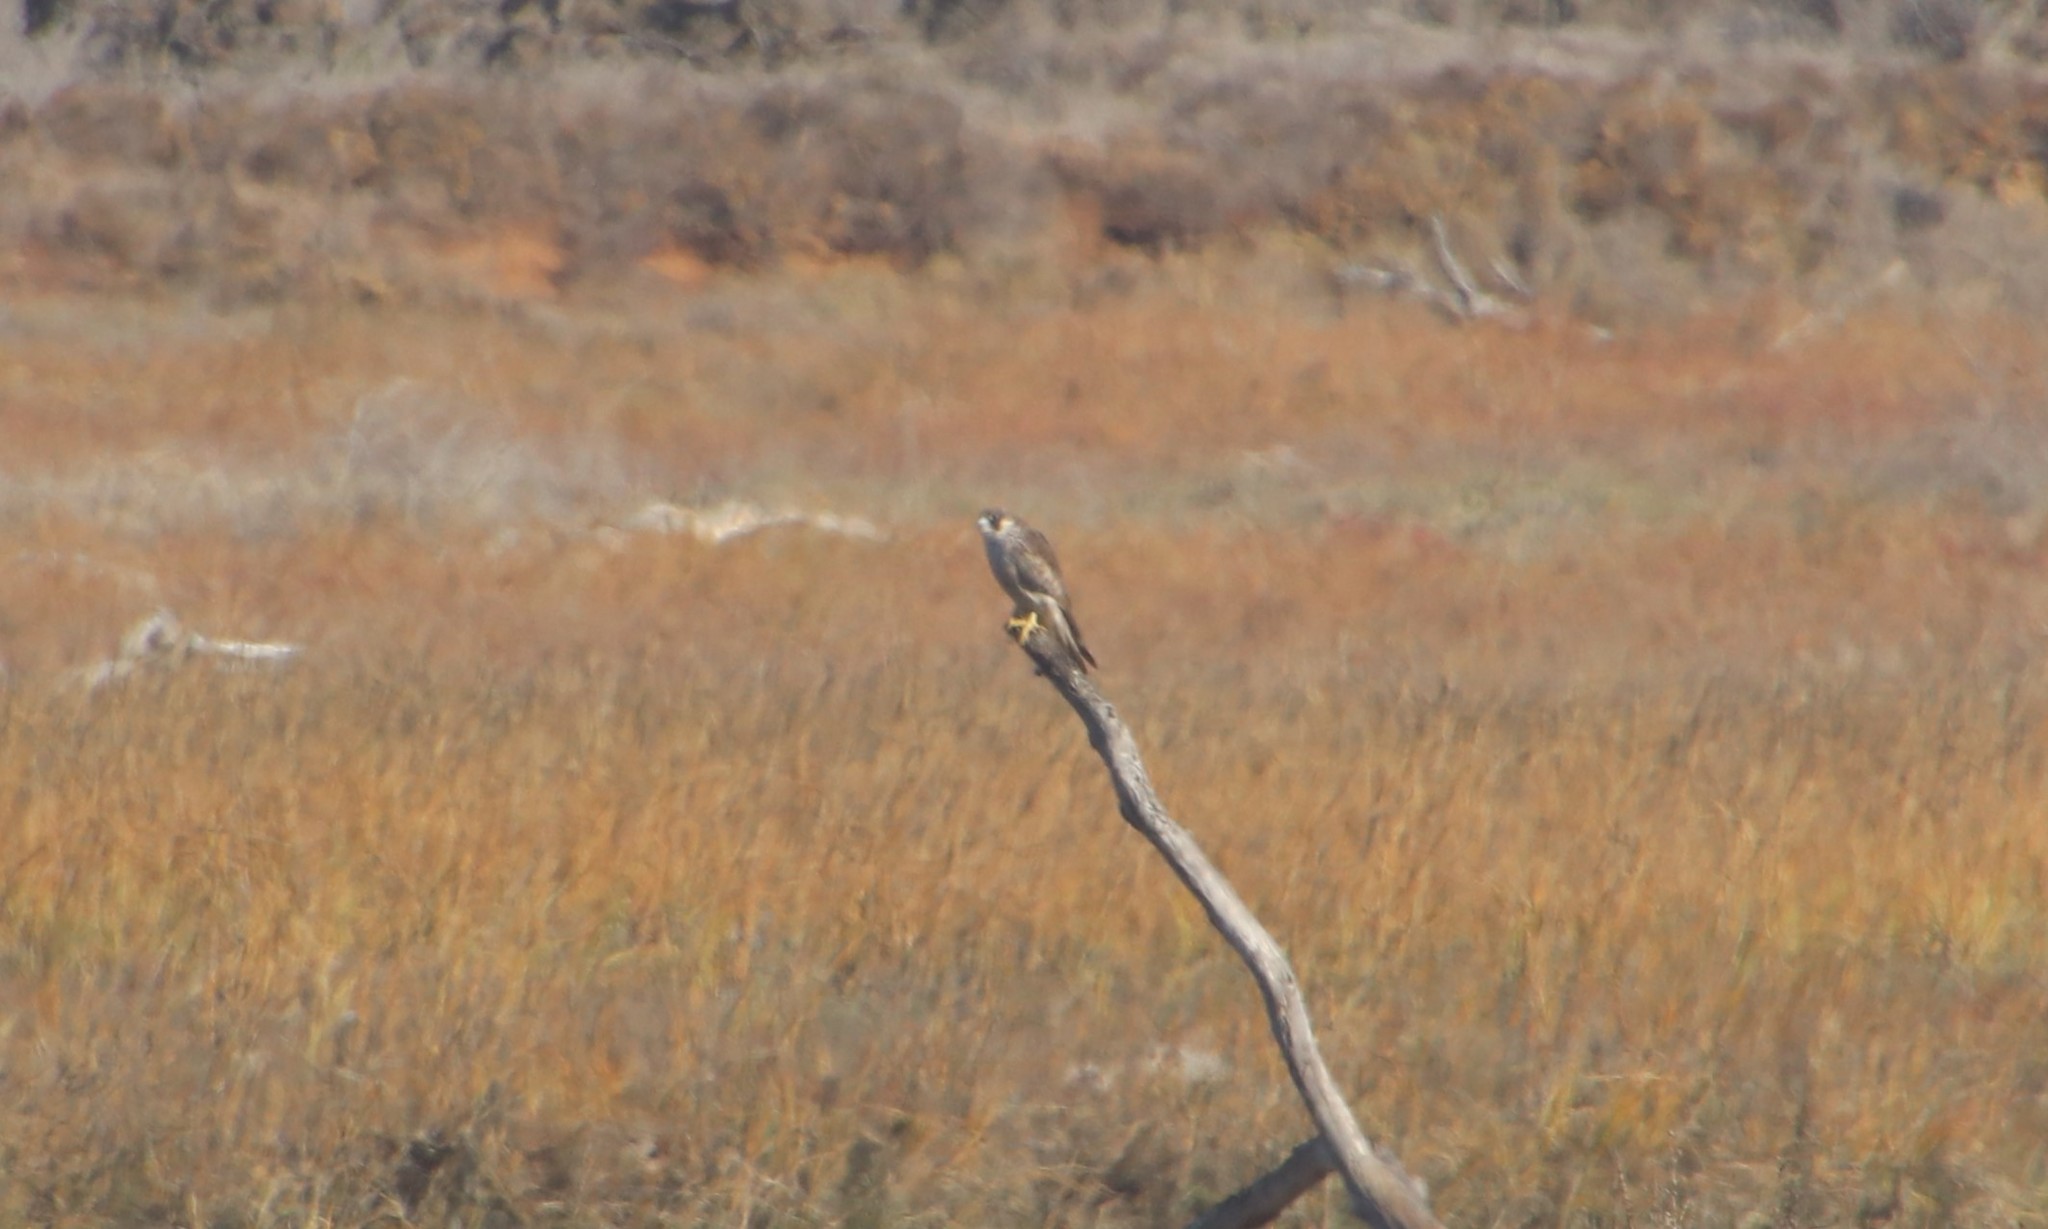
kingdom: Animalia
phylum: Chordata
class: Aves
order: Falconiformes
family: Falconidae
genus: Falco
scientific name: Falco peregrinus
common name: Peregrine falcon
